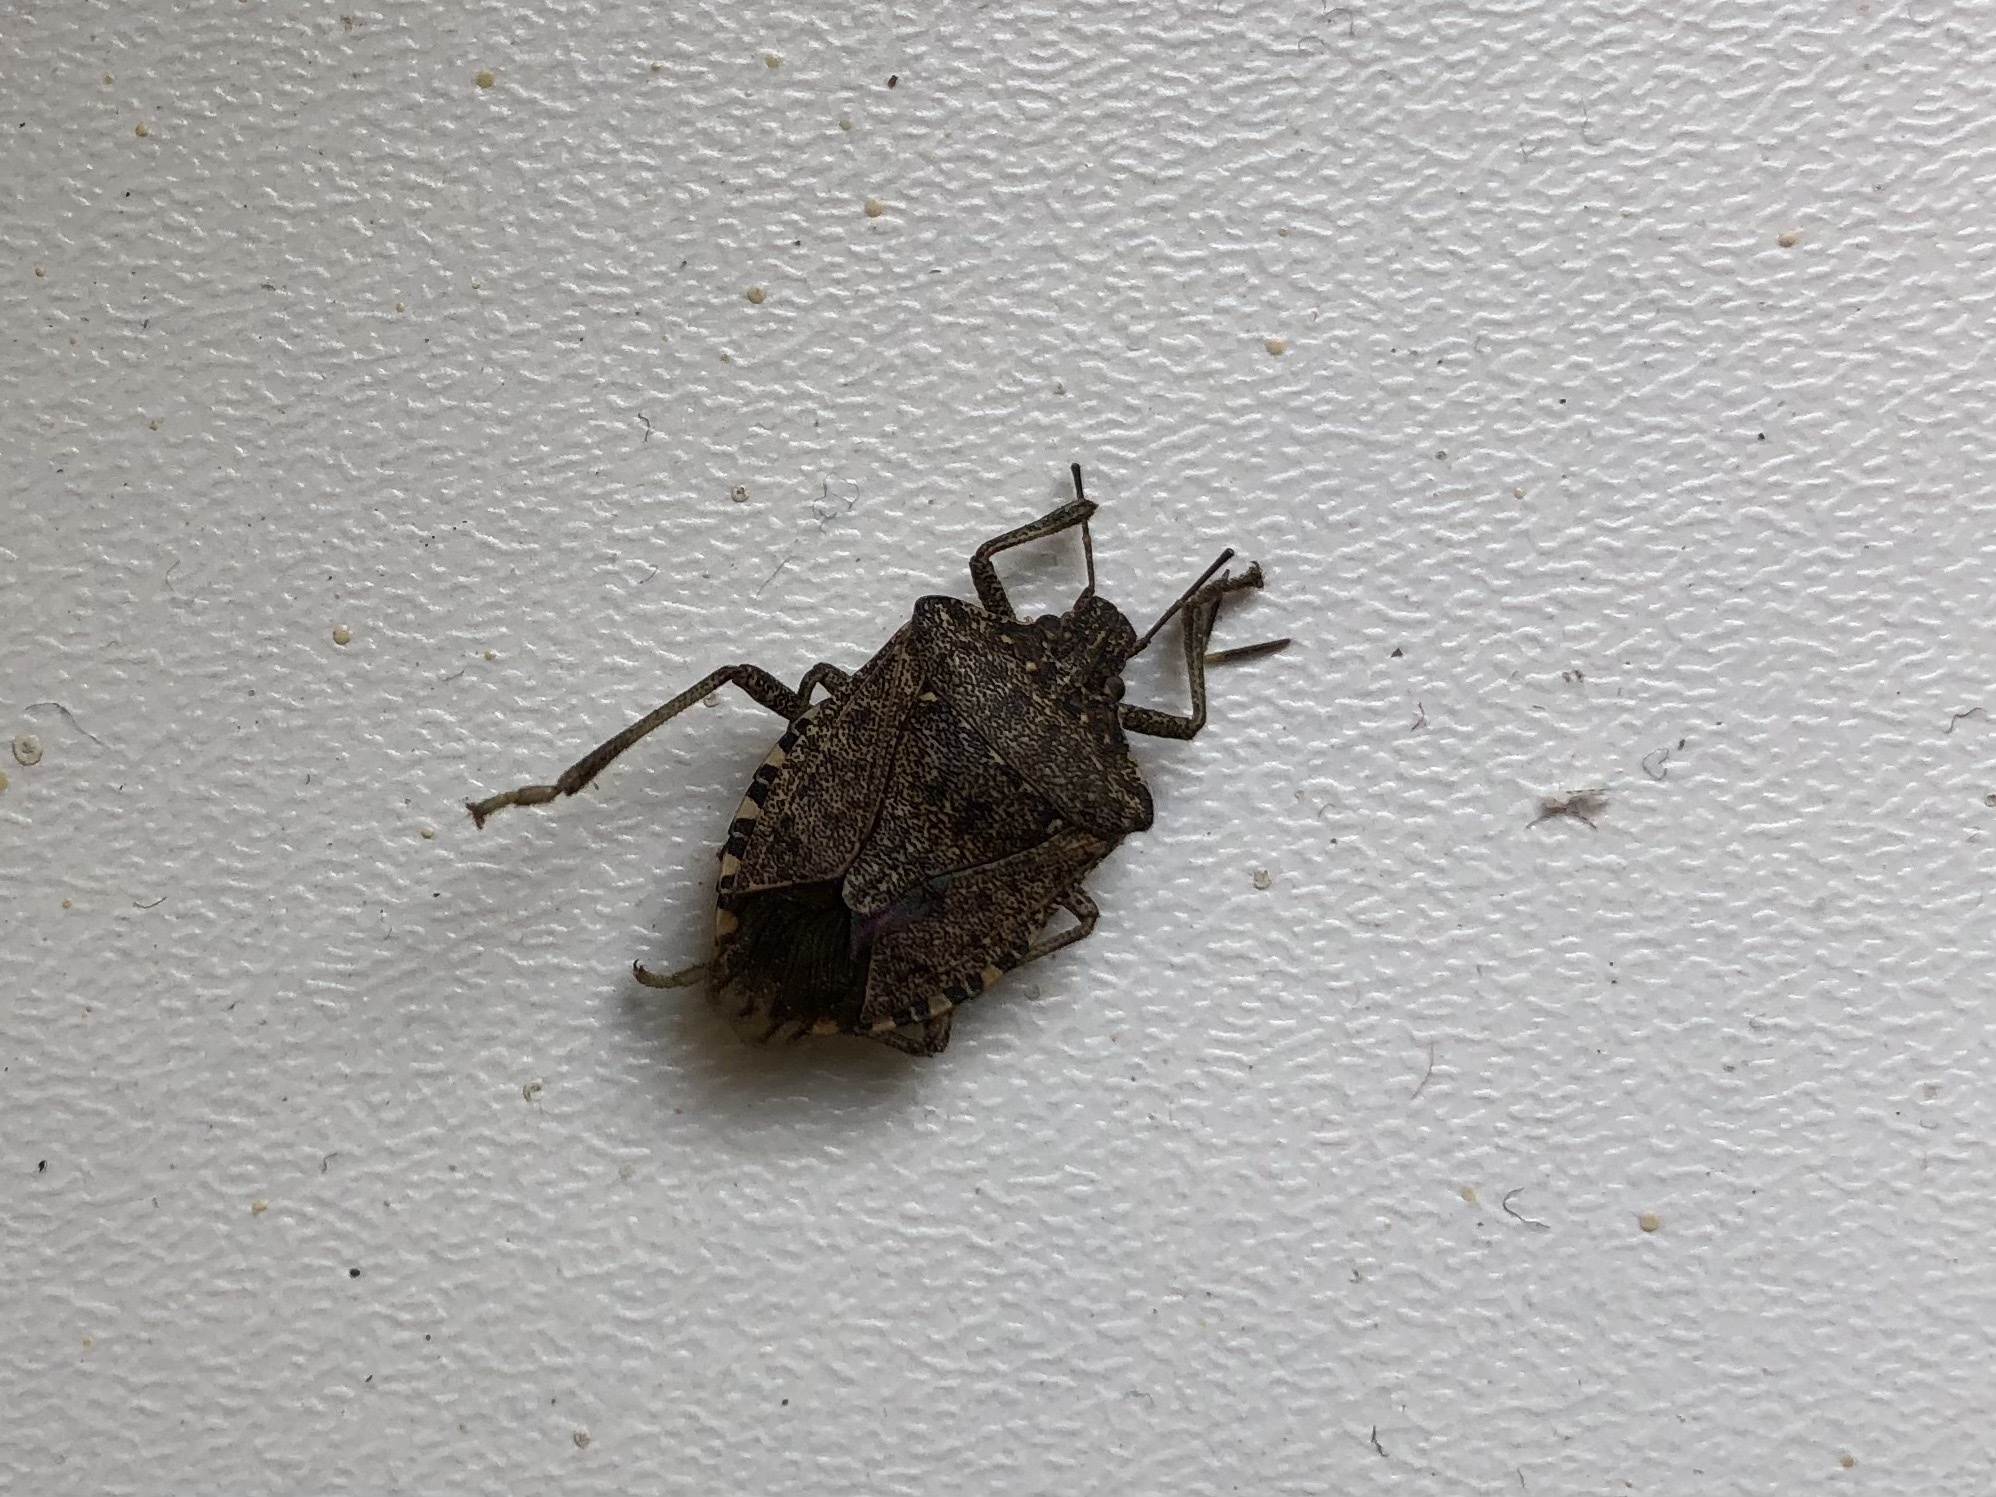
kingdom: Animalia
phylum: Arthropoda
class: Insecta
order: Hemiptera
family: Pentatomidae
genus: Halyomorpha
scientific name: Halyomorpha halys
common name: Brown marmorated stink bug
